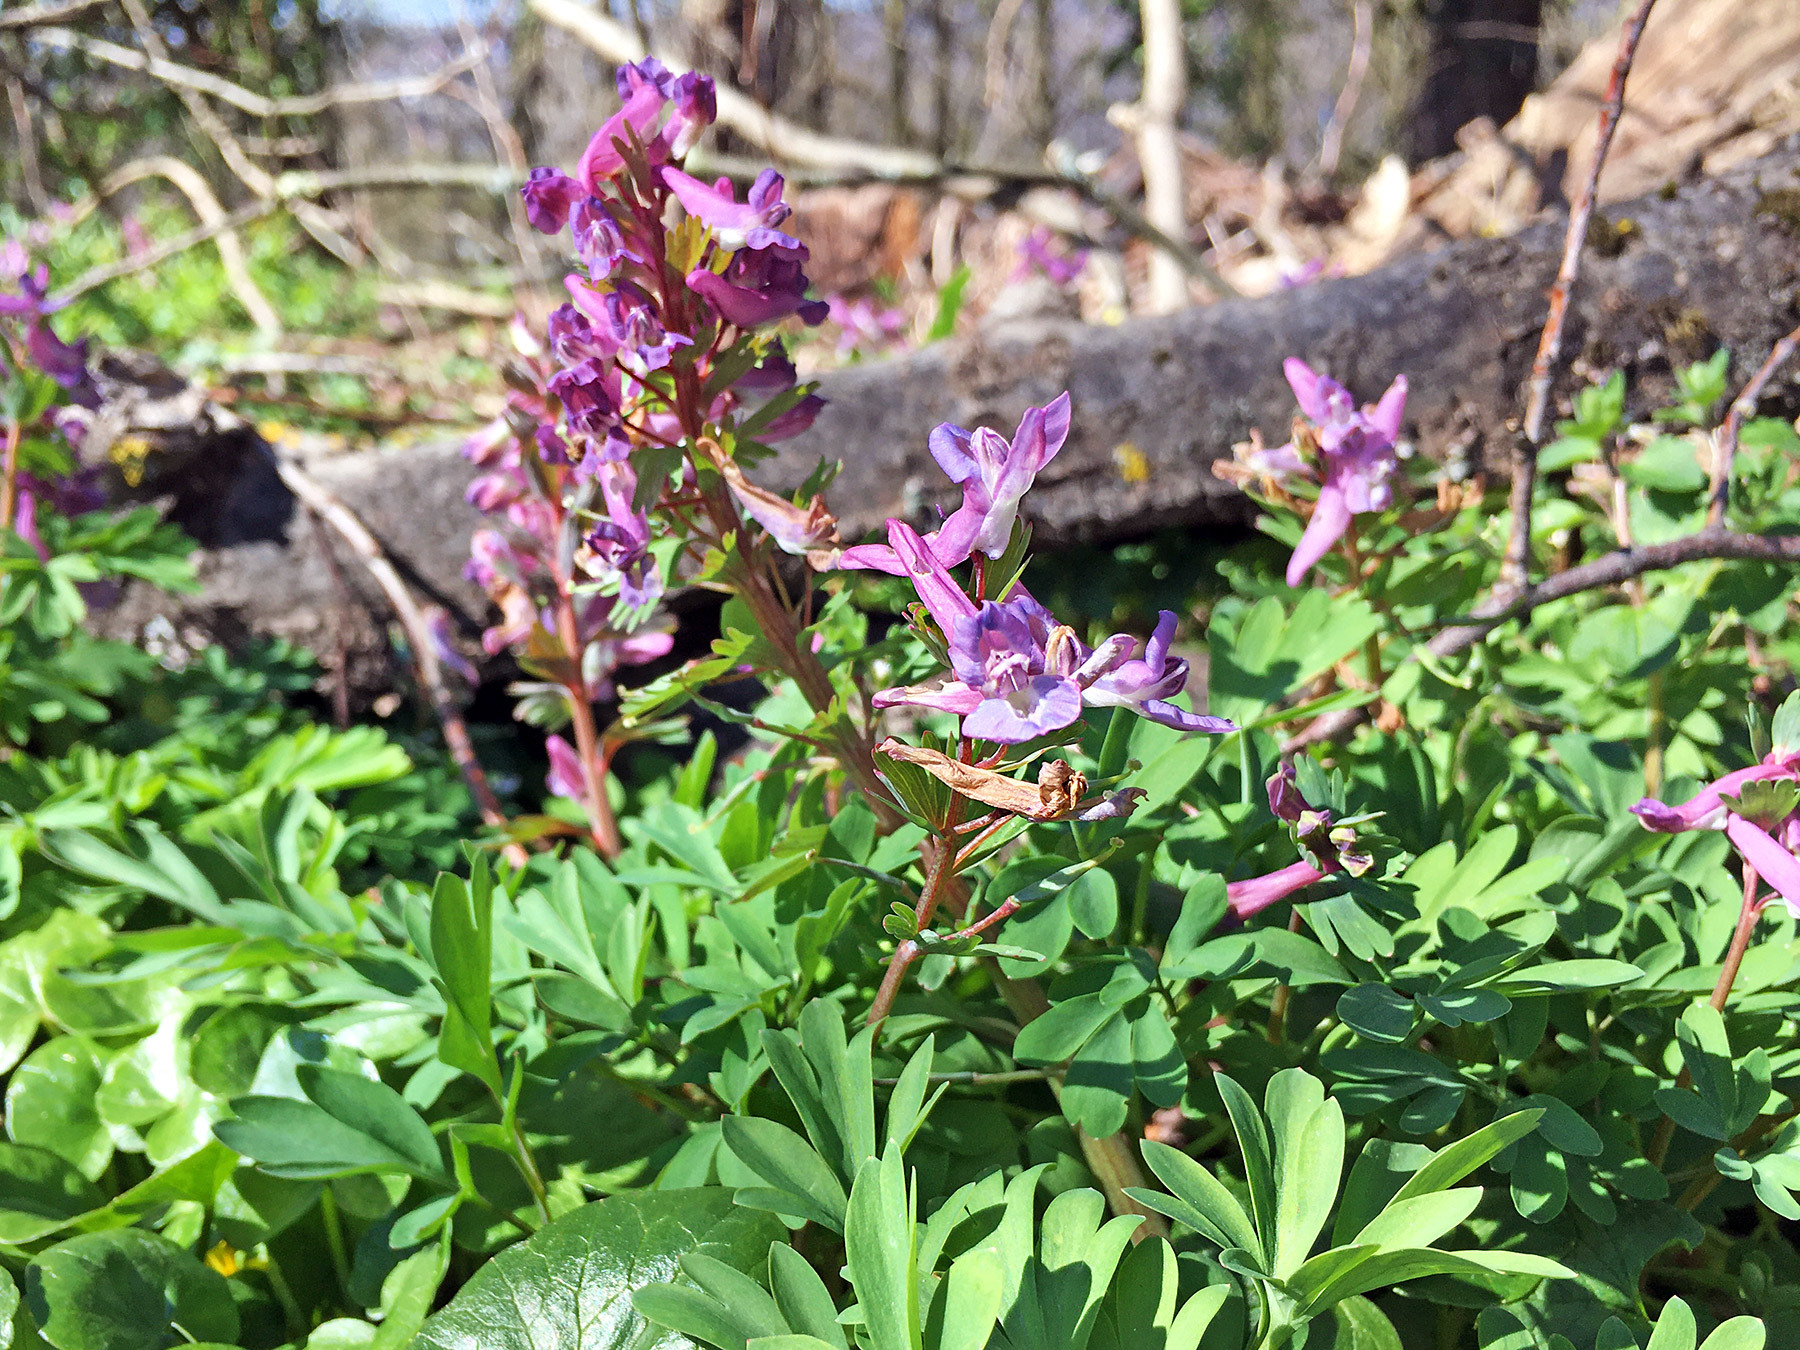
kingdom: Plantae
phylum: Tracheophyta
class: Magnoliopsida
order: Ranunculales
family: Papaveraceae
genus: Corydalis
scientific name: Corydalis solida
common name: Bird-in-a-bush
